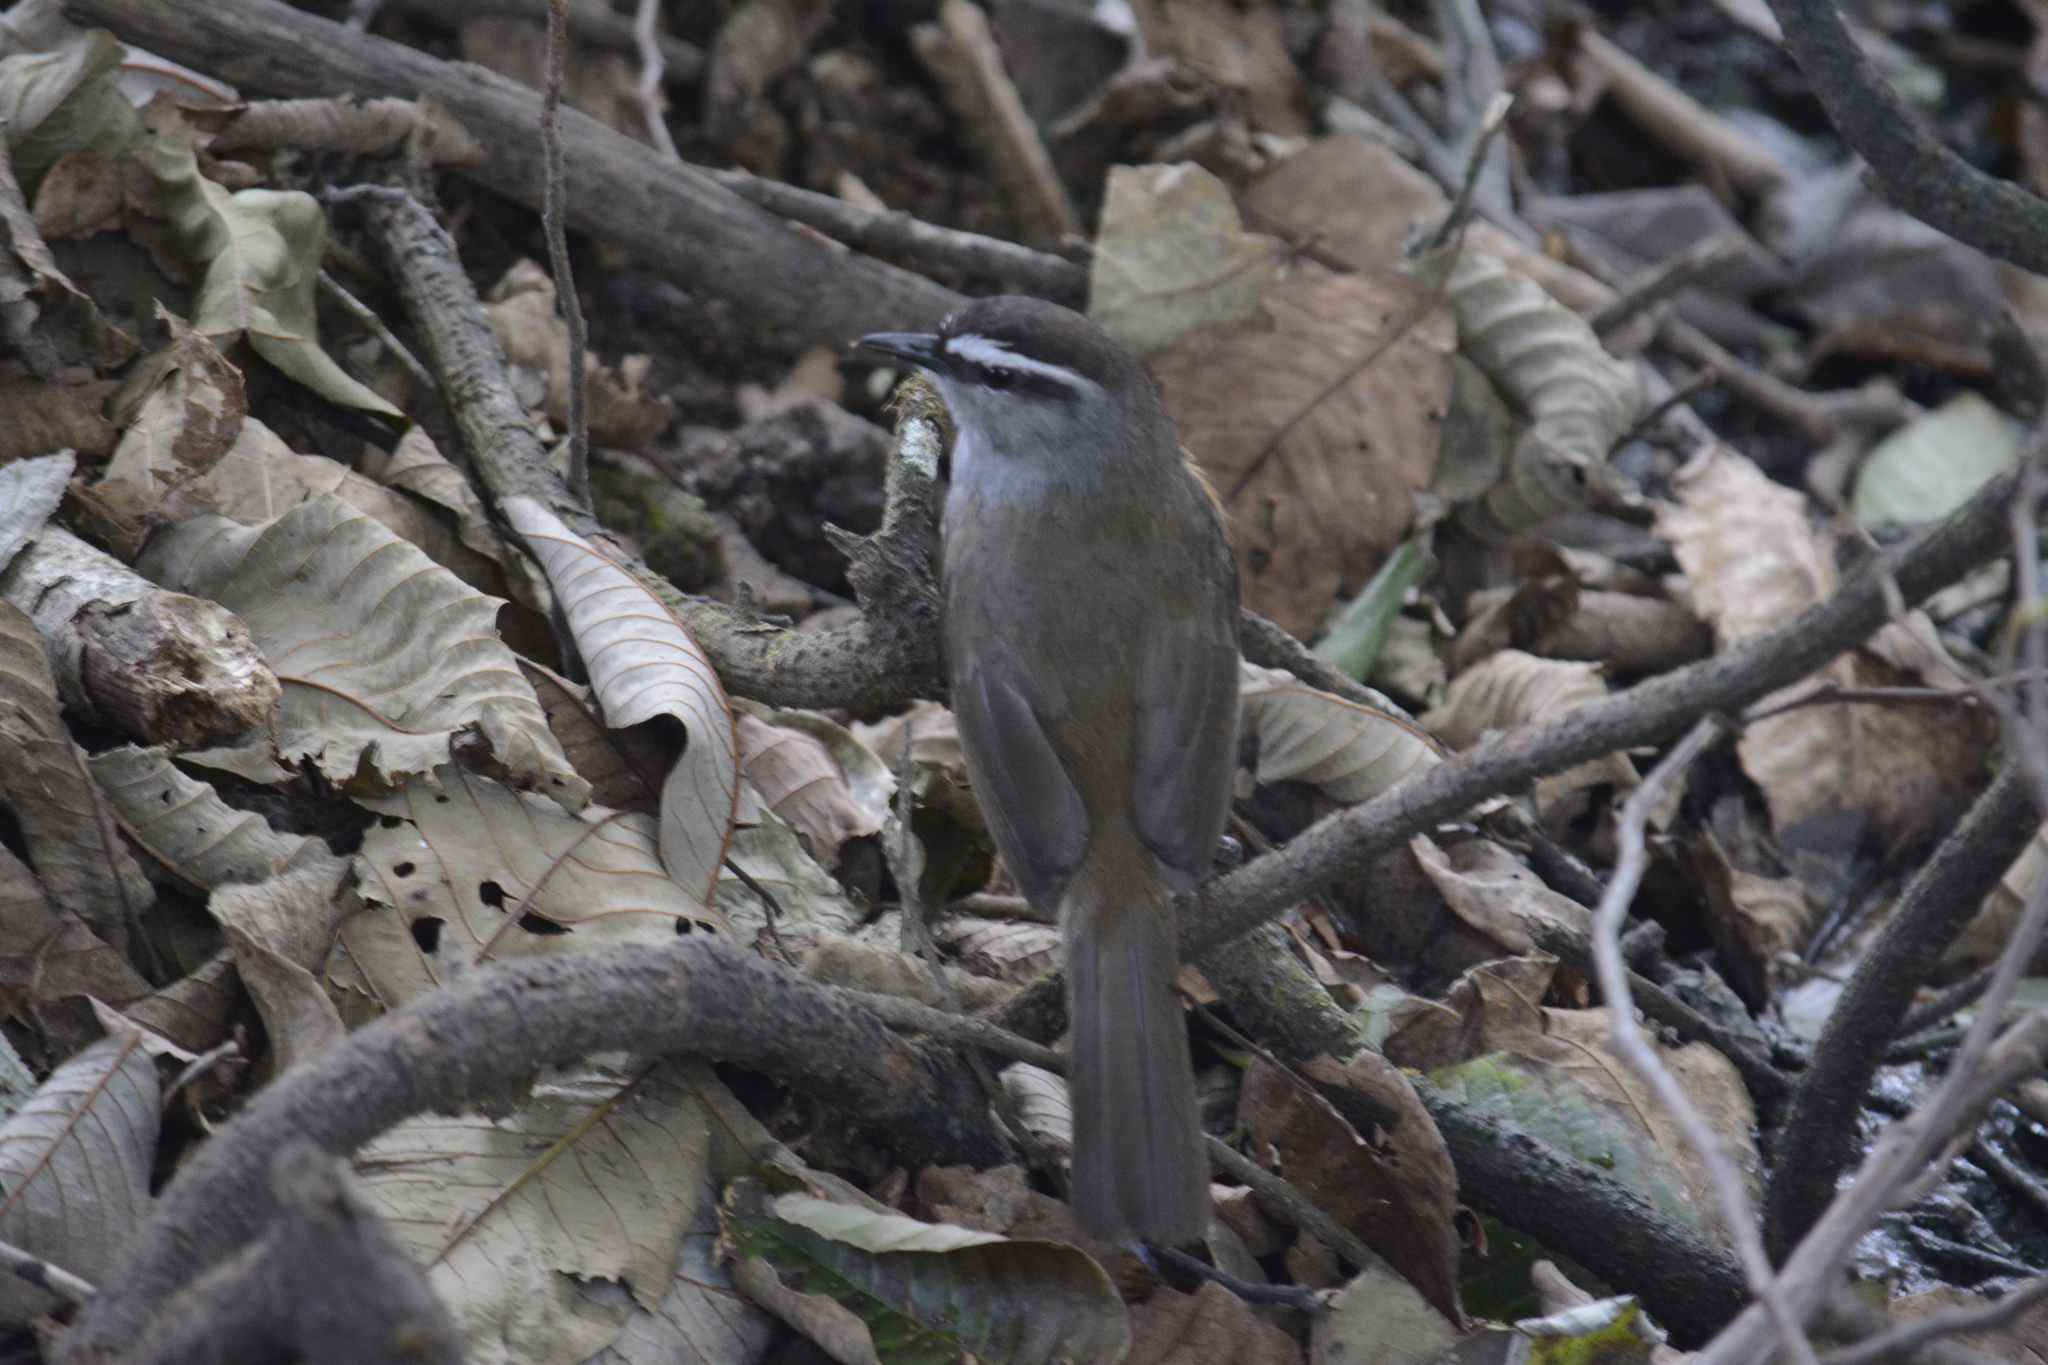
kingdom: Animalia
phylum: Chordata
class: Aves
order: Passeriformes
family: Leiothrichidae
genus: Trochalopteron
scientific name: Trochalopteron fairbanki
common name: Kerala laughingthrush
